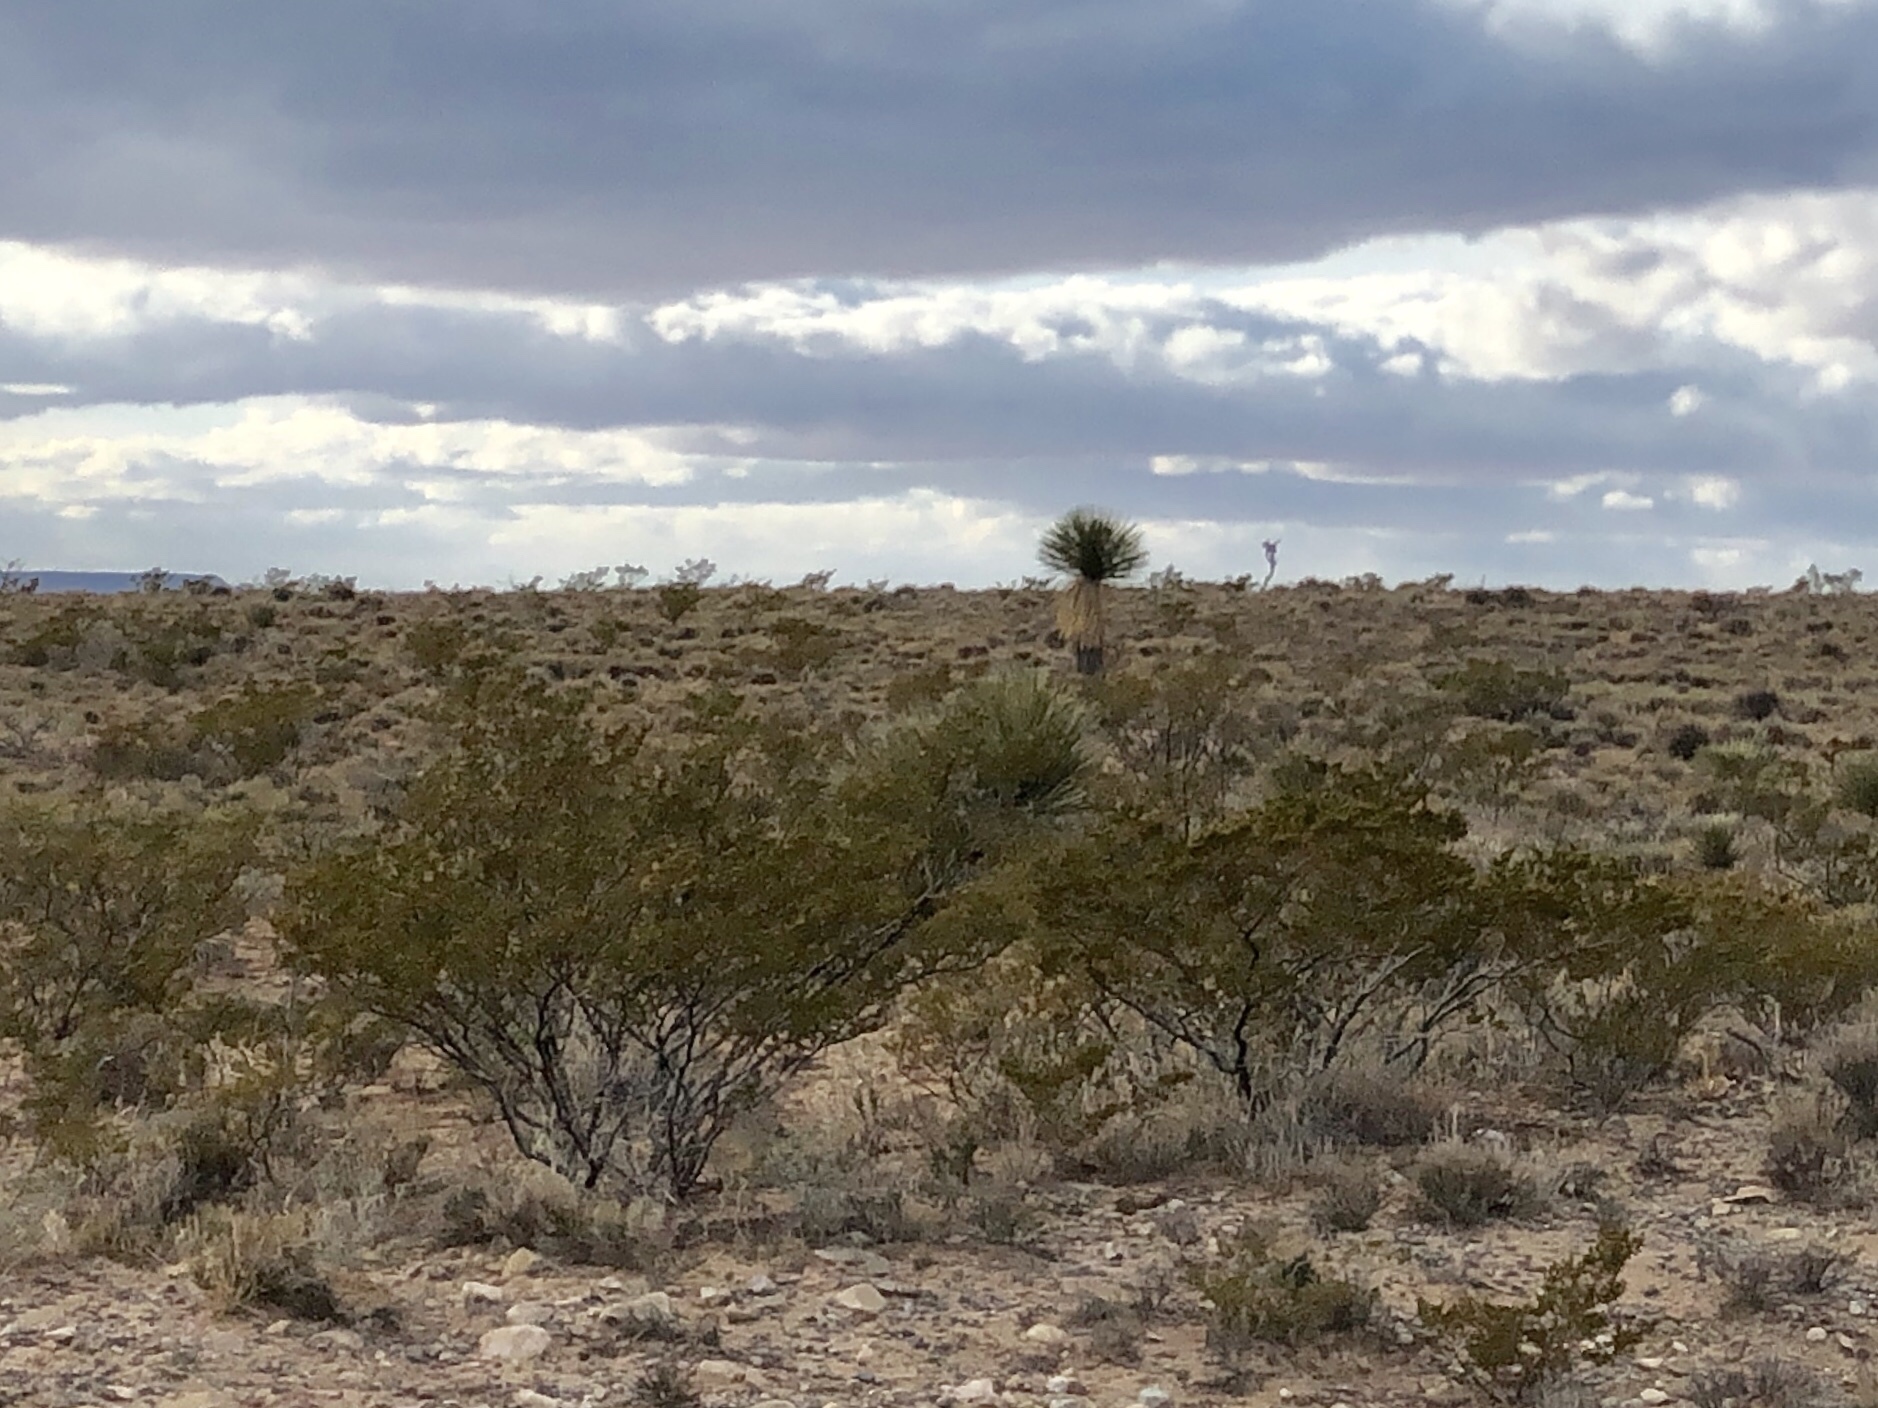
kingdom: Plantae
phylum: Tracheophyta
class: Magnoliopsida
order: Zygophyllales
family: Zygophyllaceae
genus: Larrea
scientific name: Larrea tridentata
